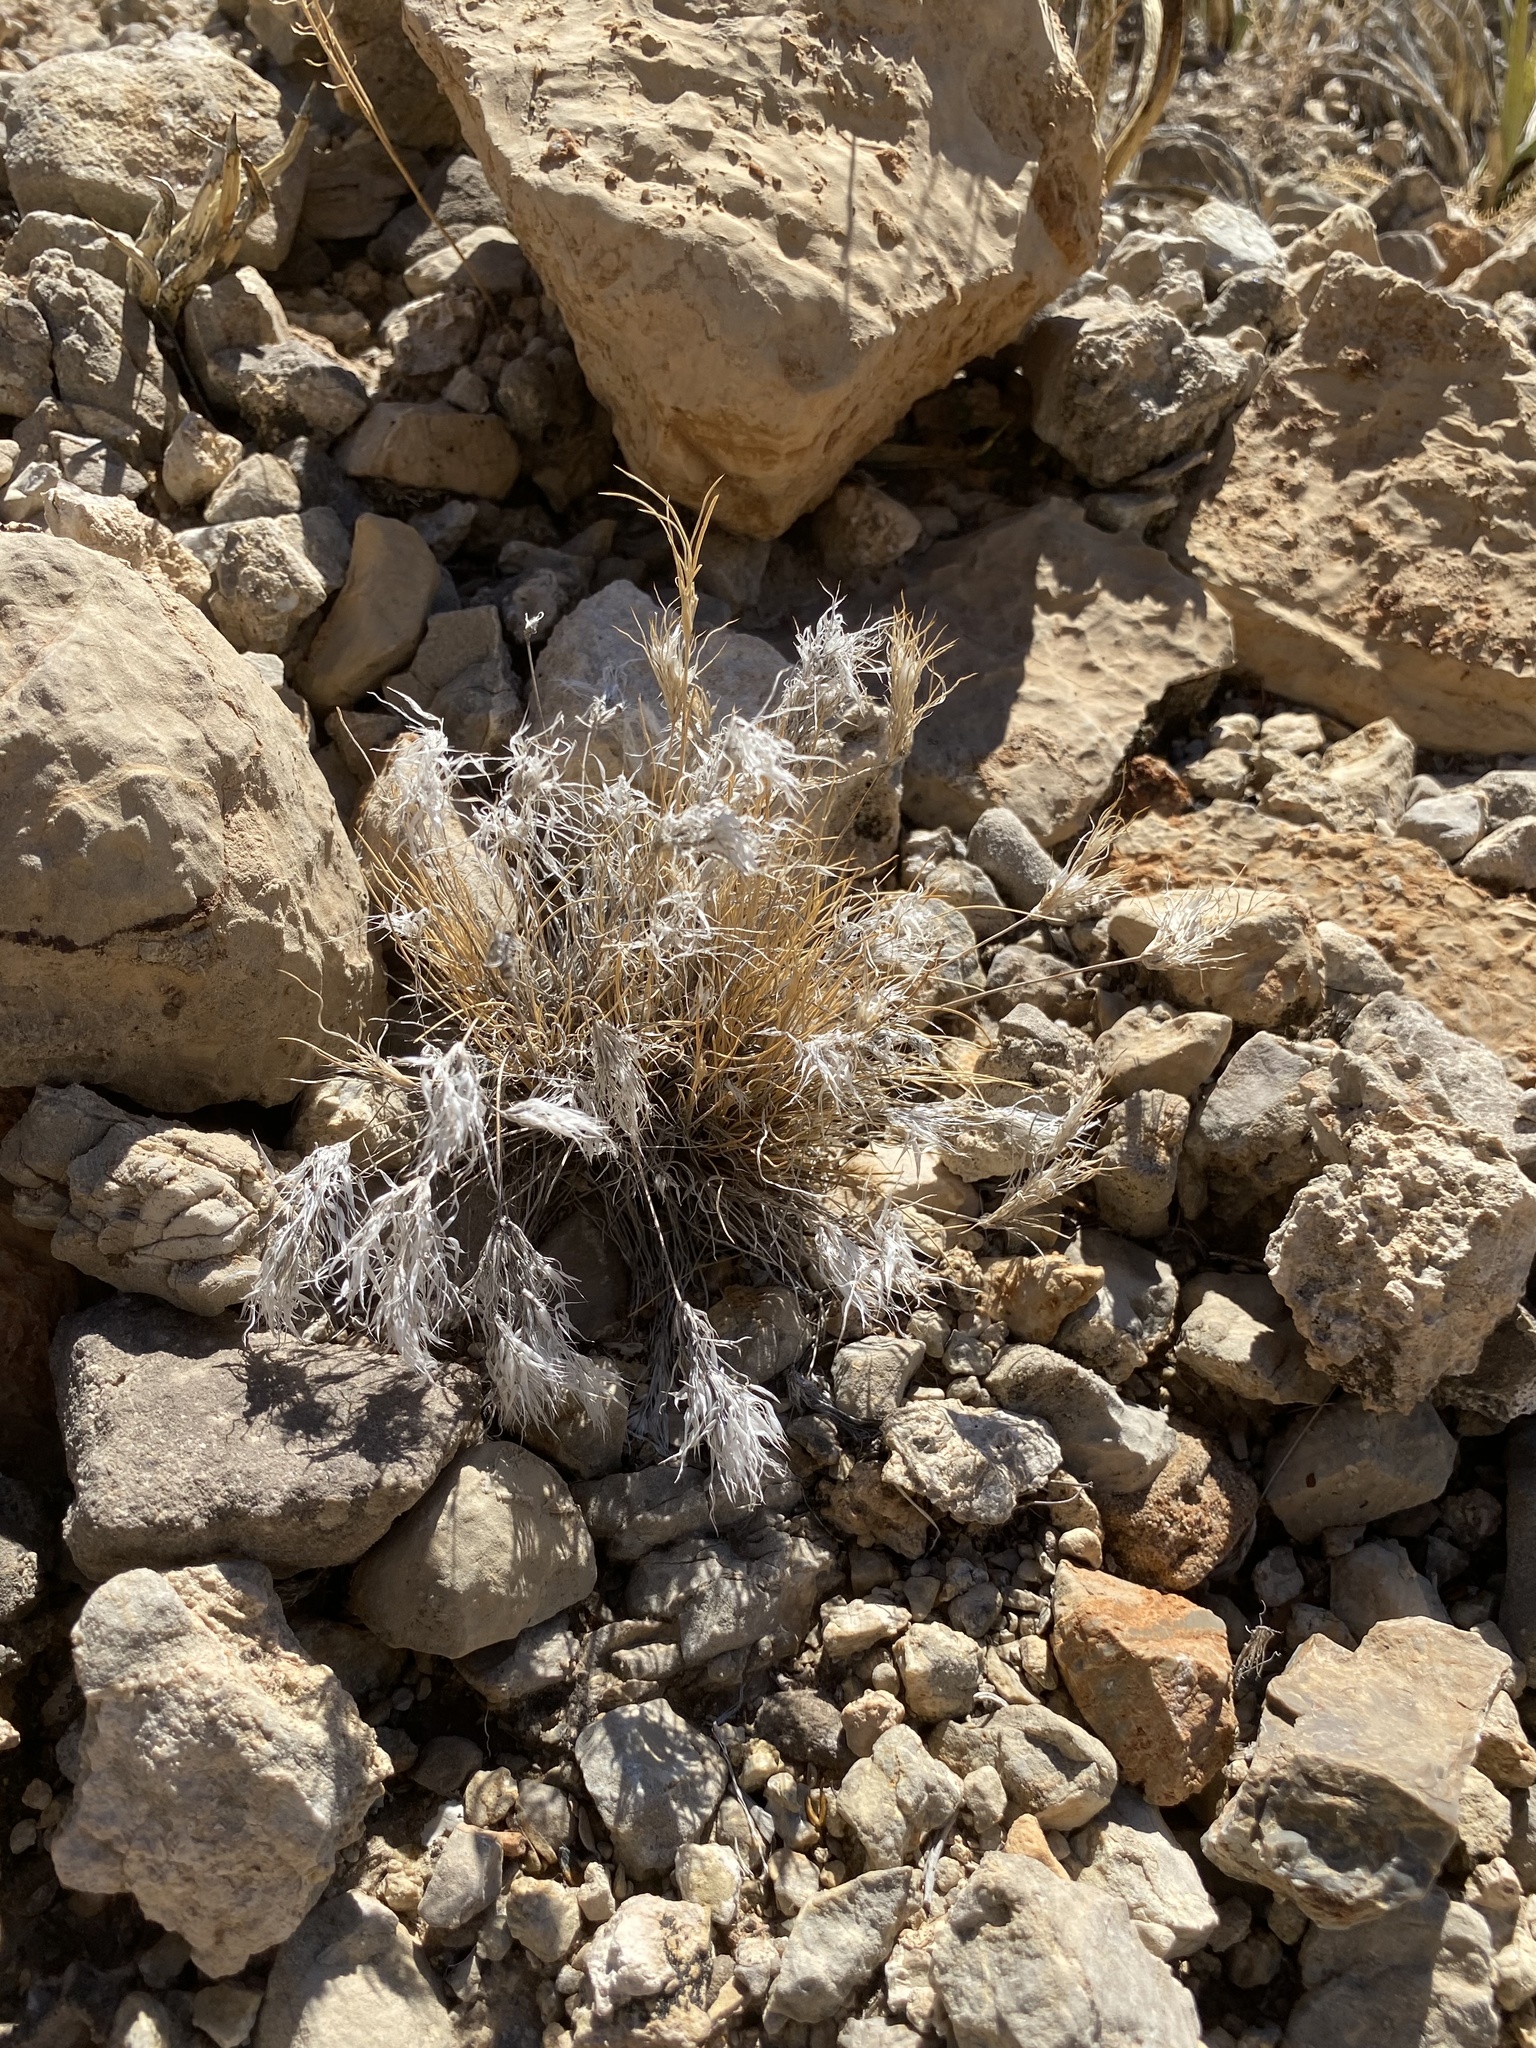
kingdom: Plantae
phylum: Tracheophyta
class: Liliopsida
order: Poales
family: Poaceae
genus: Dasyochloa
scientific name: Dasyochloa pulchella
